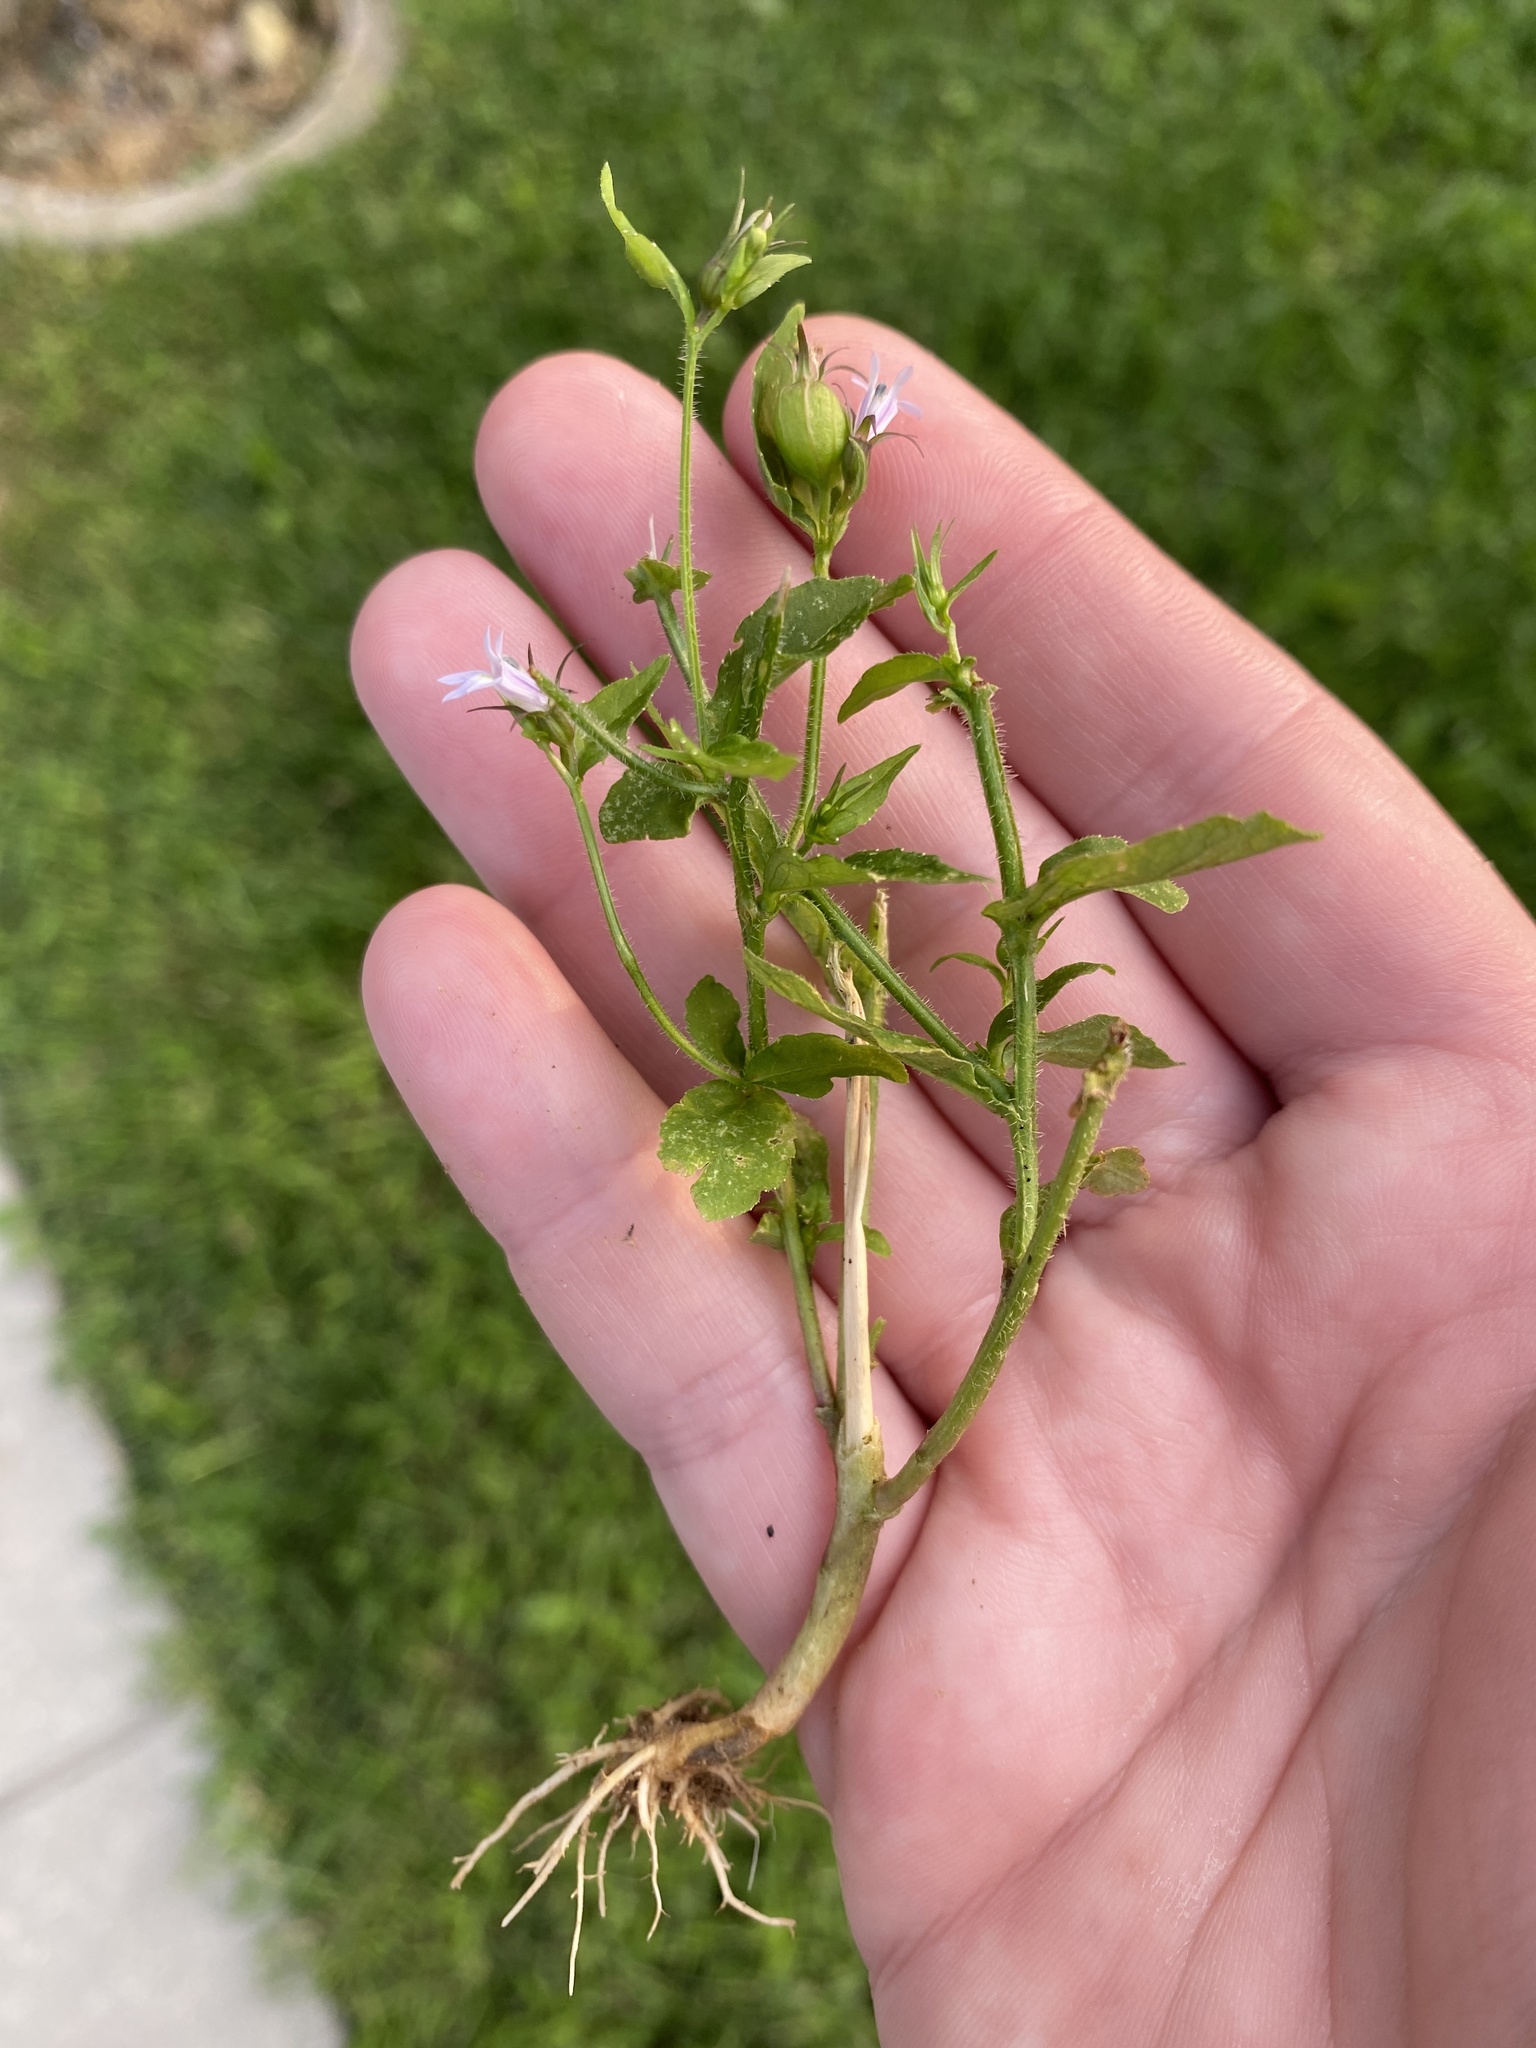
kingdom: Plantae
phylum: Tracheophyta
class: Magnoliopsida
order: Asterales
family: Campanulaceae
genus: Lobelia
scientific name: Lobelia inflata
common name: Indian tobacco
